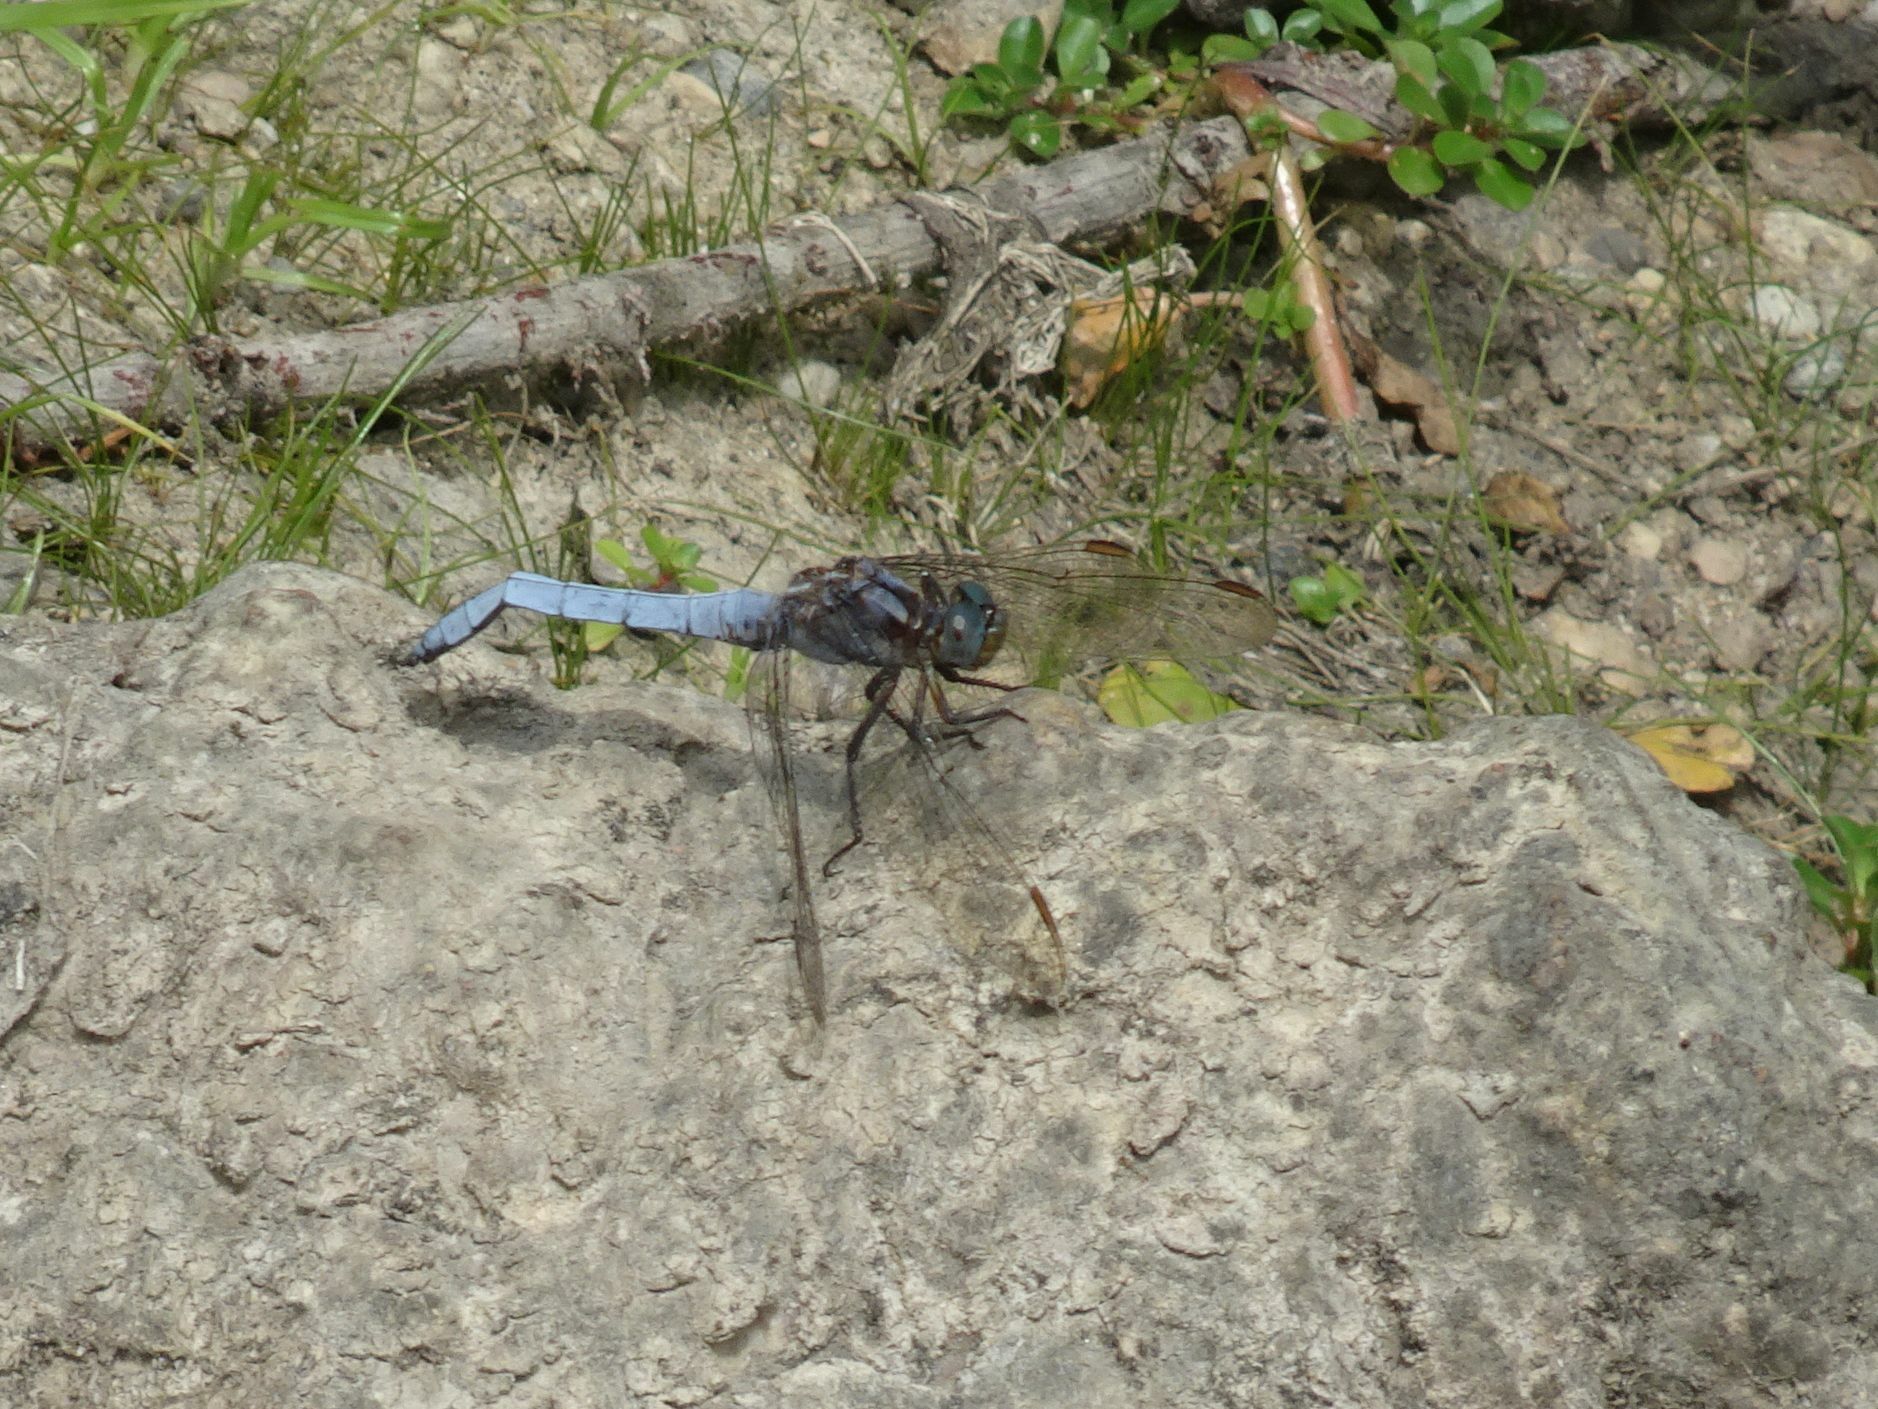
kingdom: Animalia
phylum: Arthropoda
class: Insecta
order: Odonata
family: Libellulidae
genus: Orthetrum
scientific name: Orthetrum coerulescens
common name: Keeled skimmer
